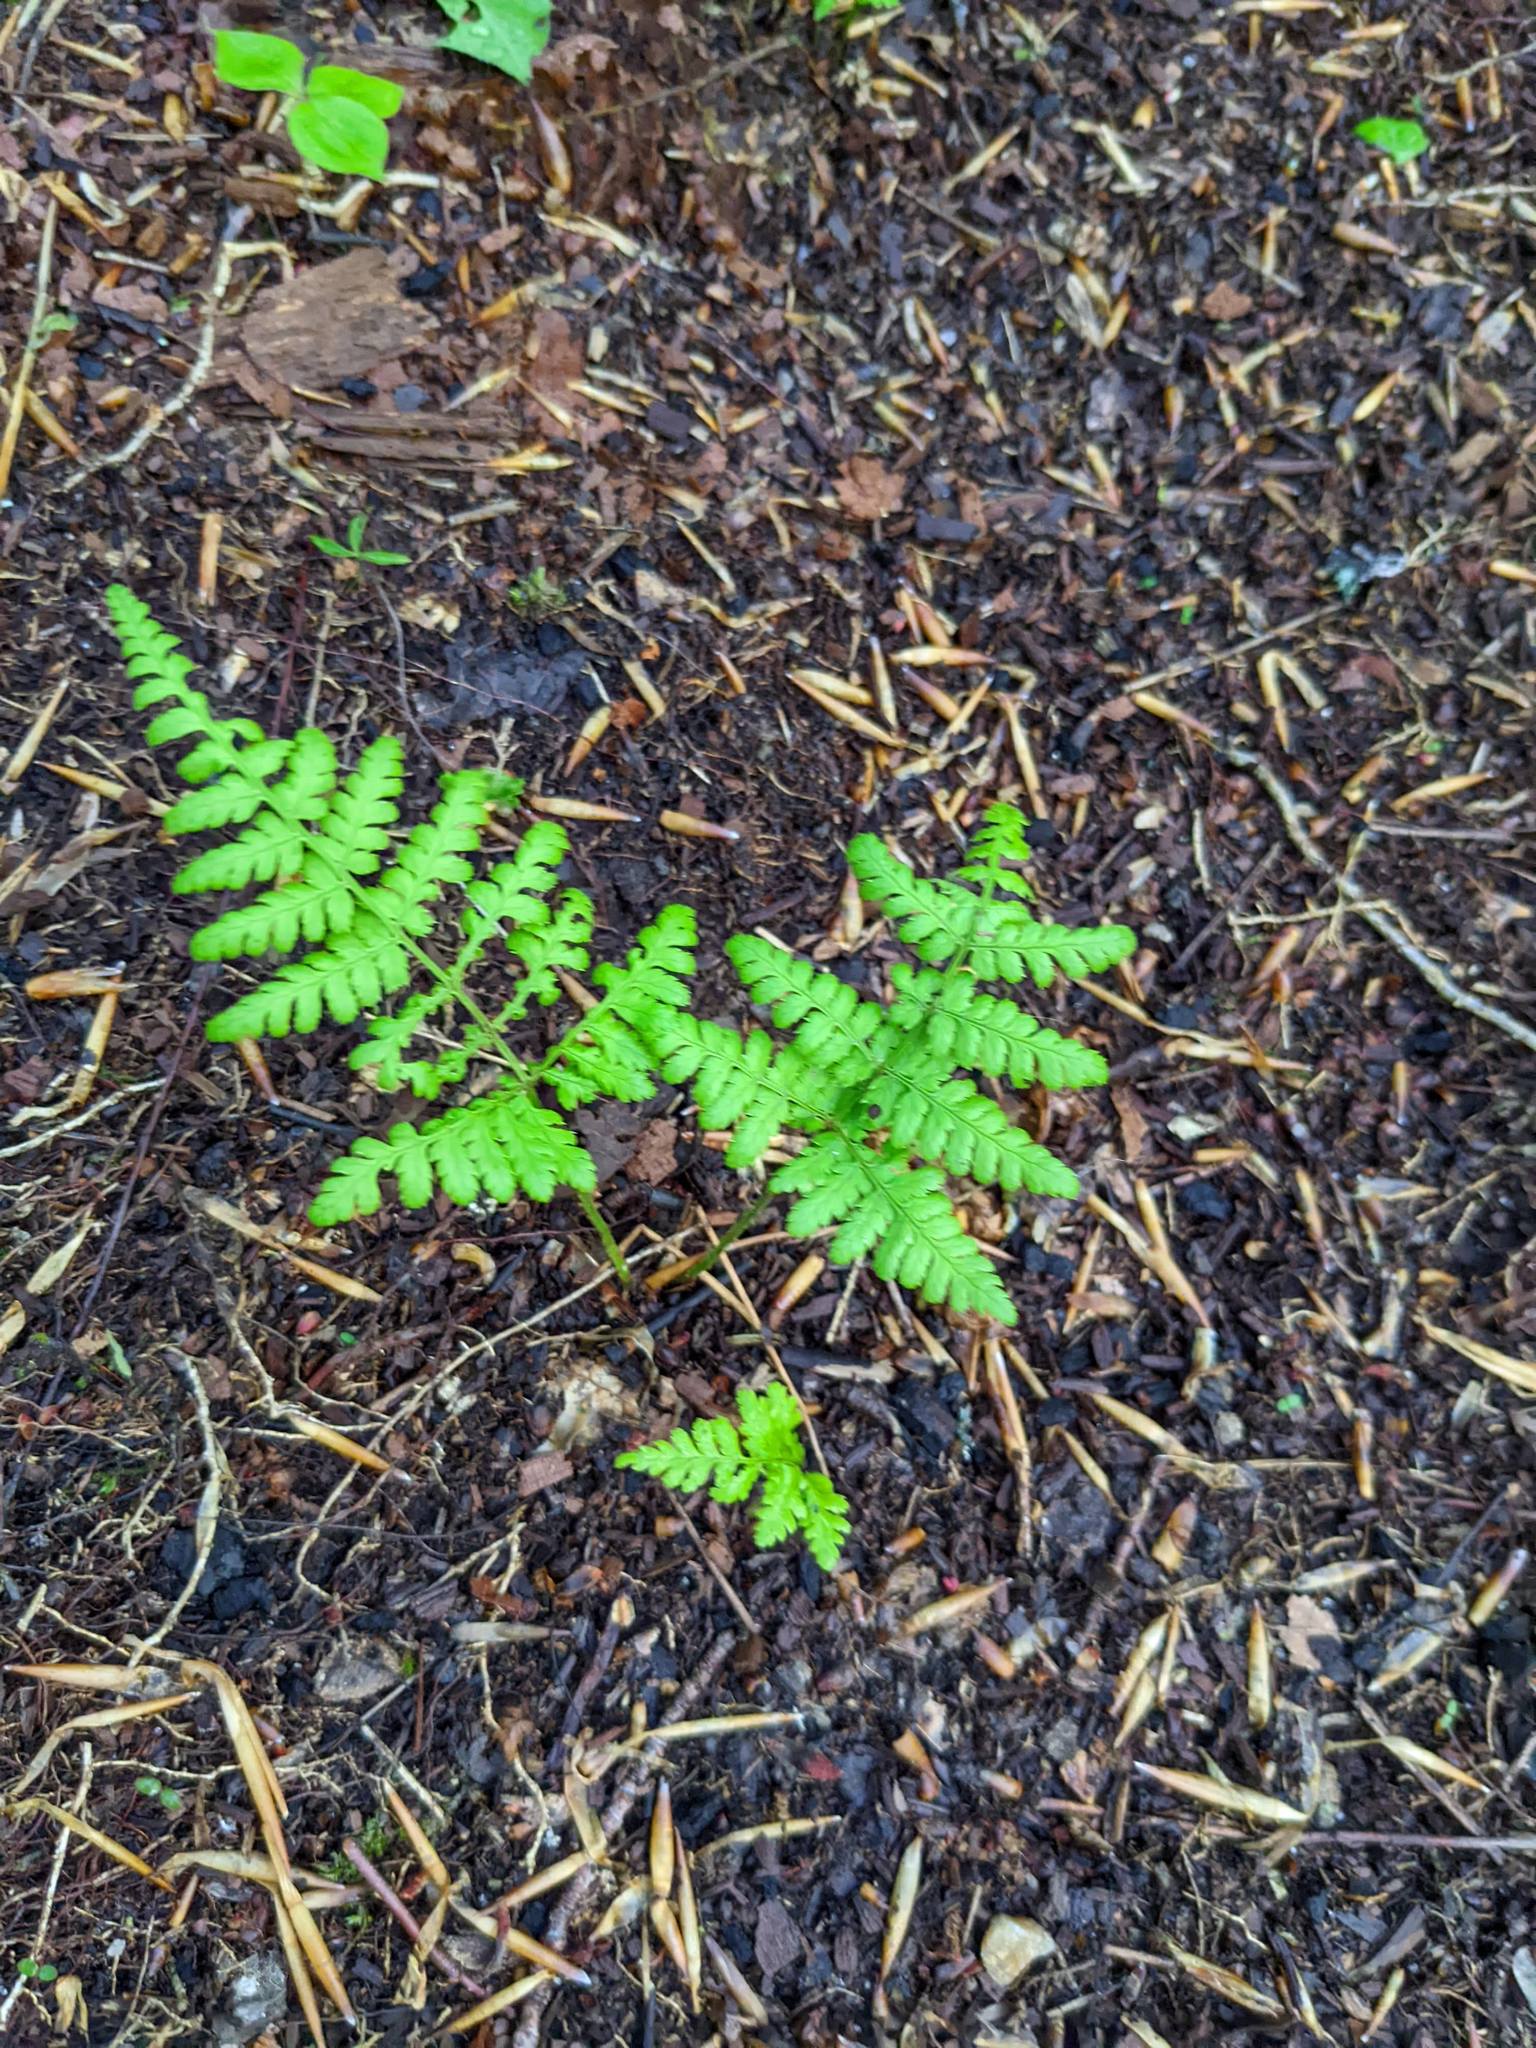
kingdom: Plantae
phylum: Tracheophyta
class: Polypodiopsida
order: Polypodiales
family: Dryopteridaceae
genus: Dryopteris
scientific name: Dryopteris intermedia
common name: Evergreen wood fern
